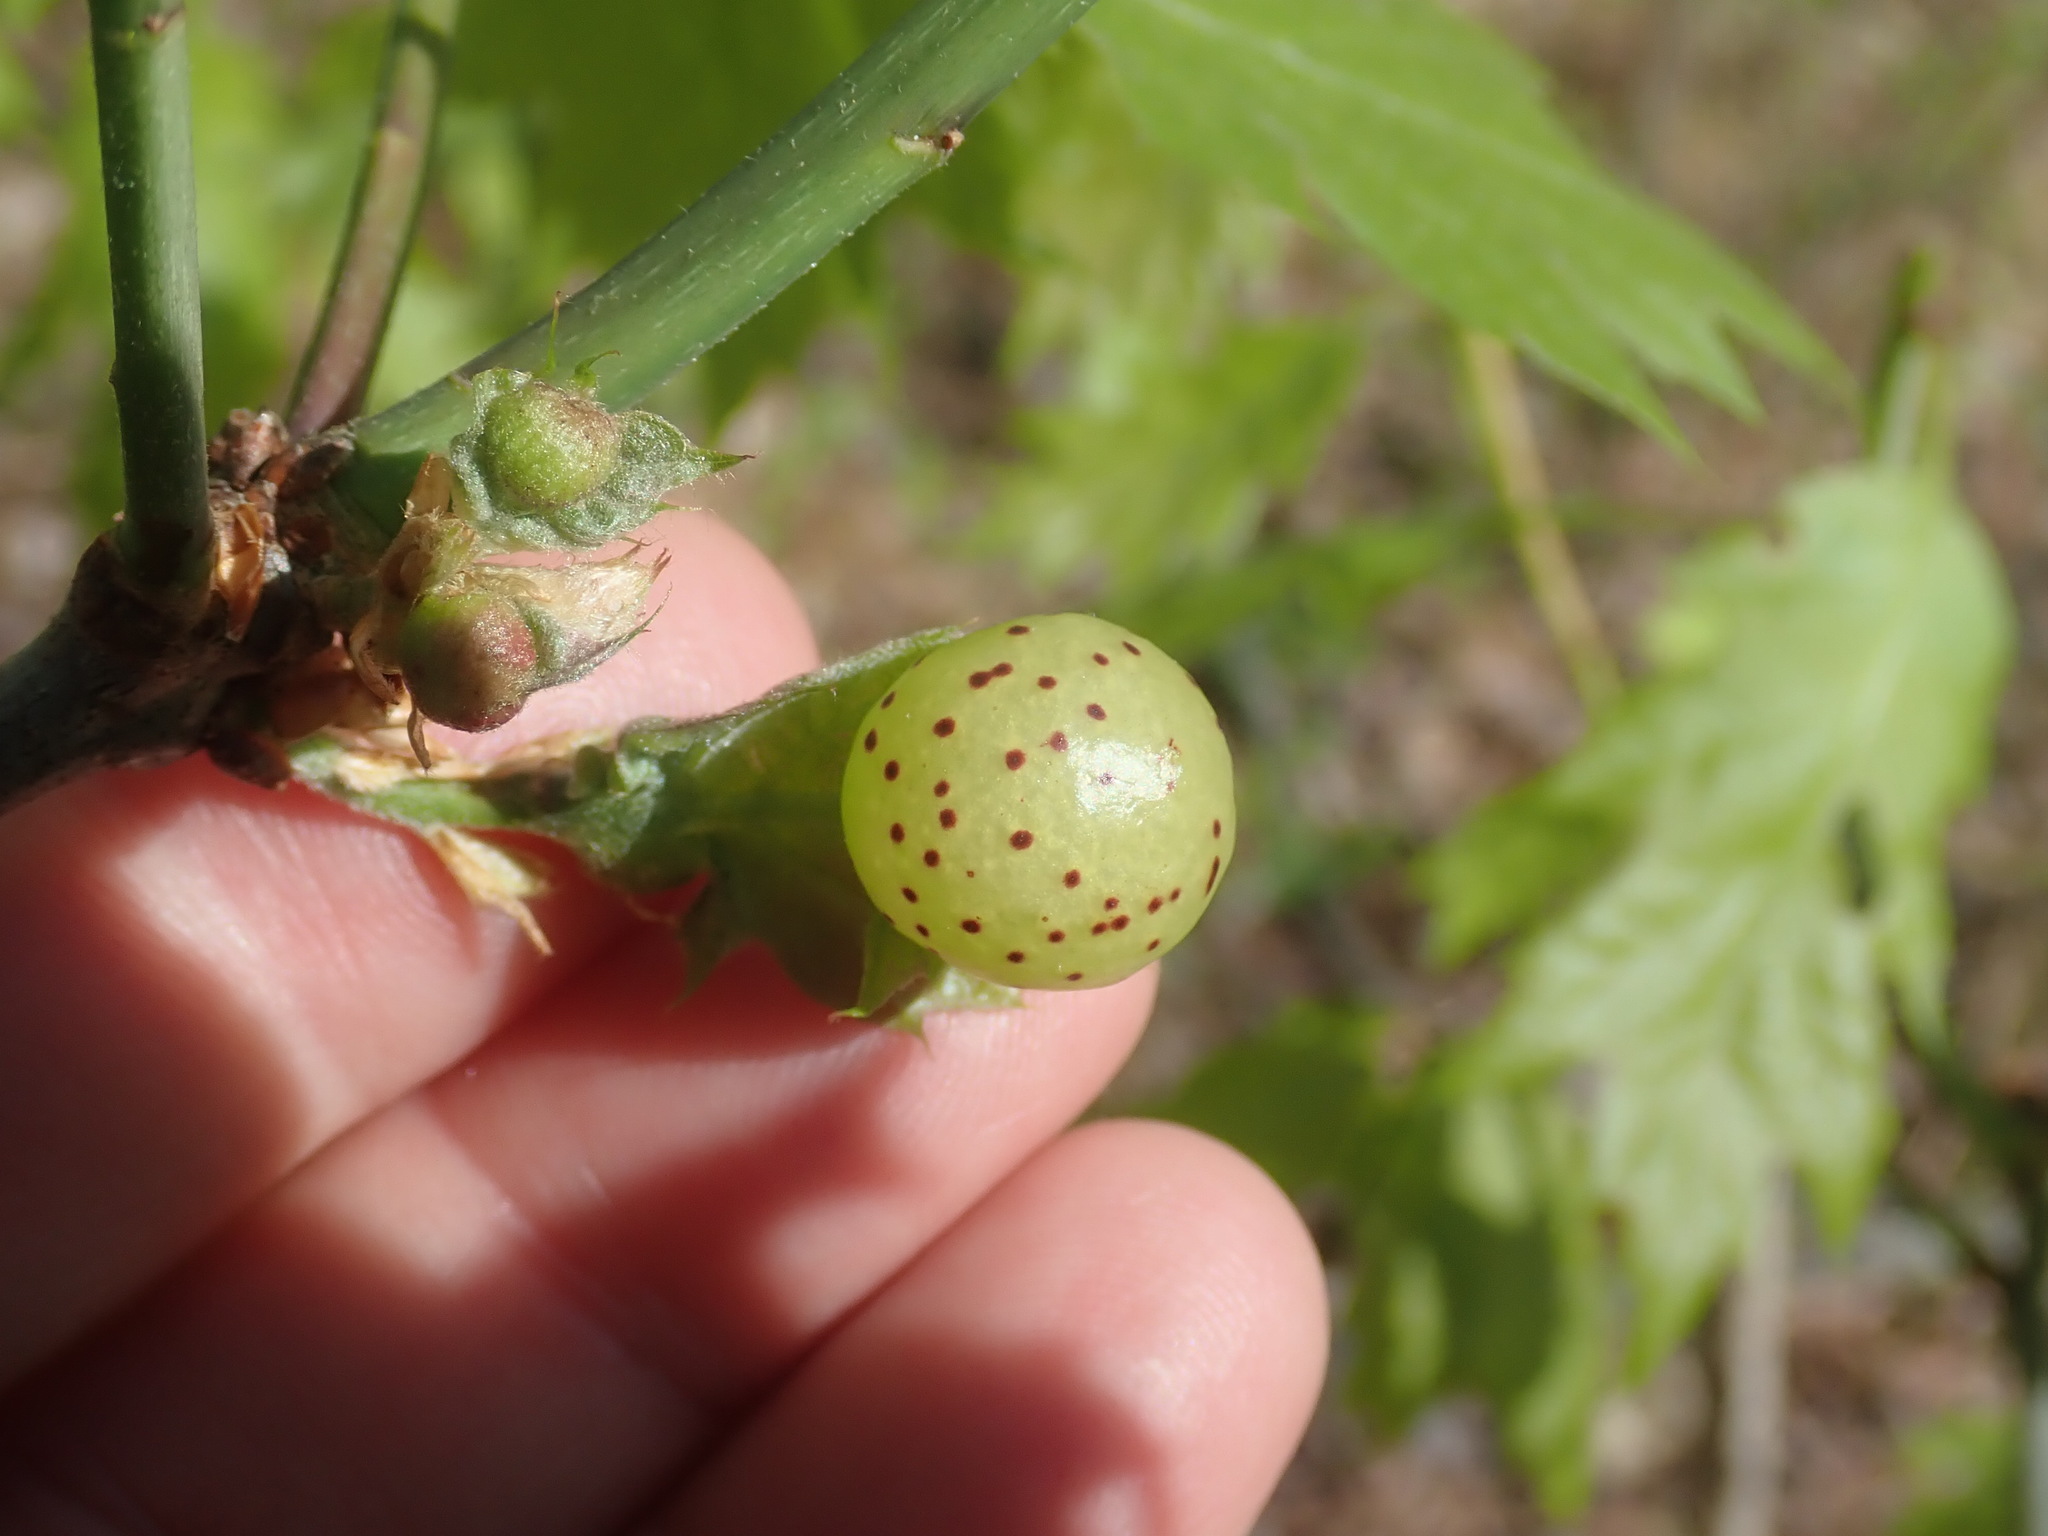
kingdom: Animalia
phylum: Arthropoda
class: Insecta
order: Hymenoptera
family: Cynipidae
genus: Amphibolips
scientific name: Amphibolips
